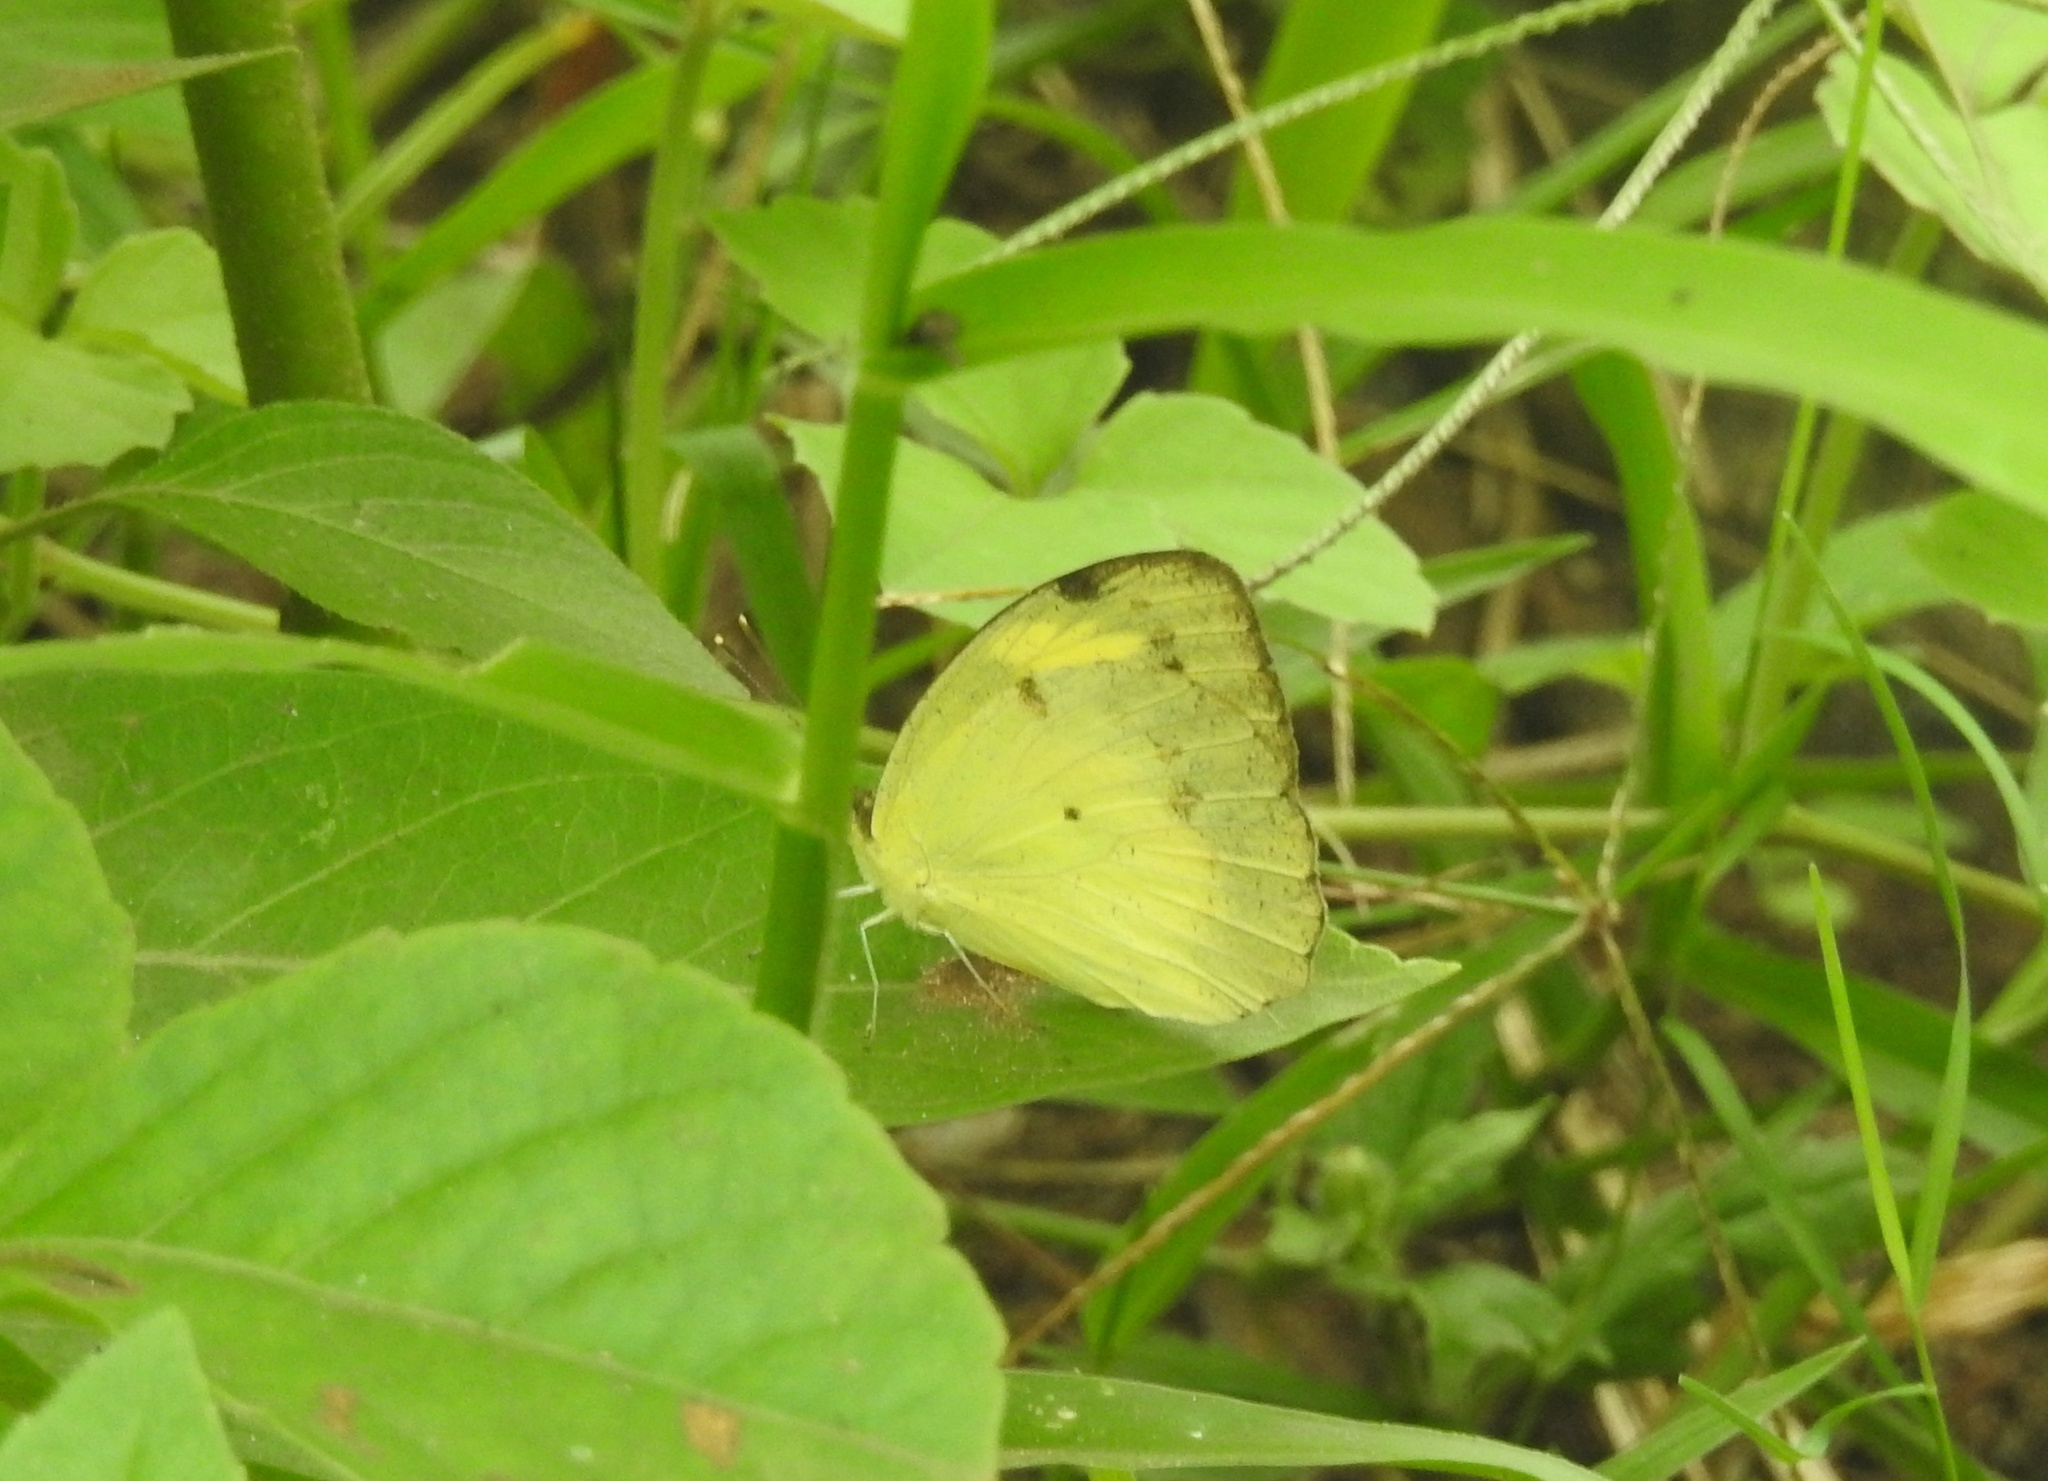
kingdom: Animalia
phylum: Arthropoda
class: Insecta
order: Lepidoptera
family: Pieridae
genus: Ixias
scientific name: Ixias pyrene
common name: Yellow orange tip
